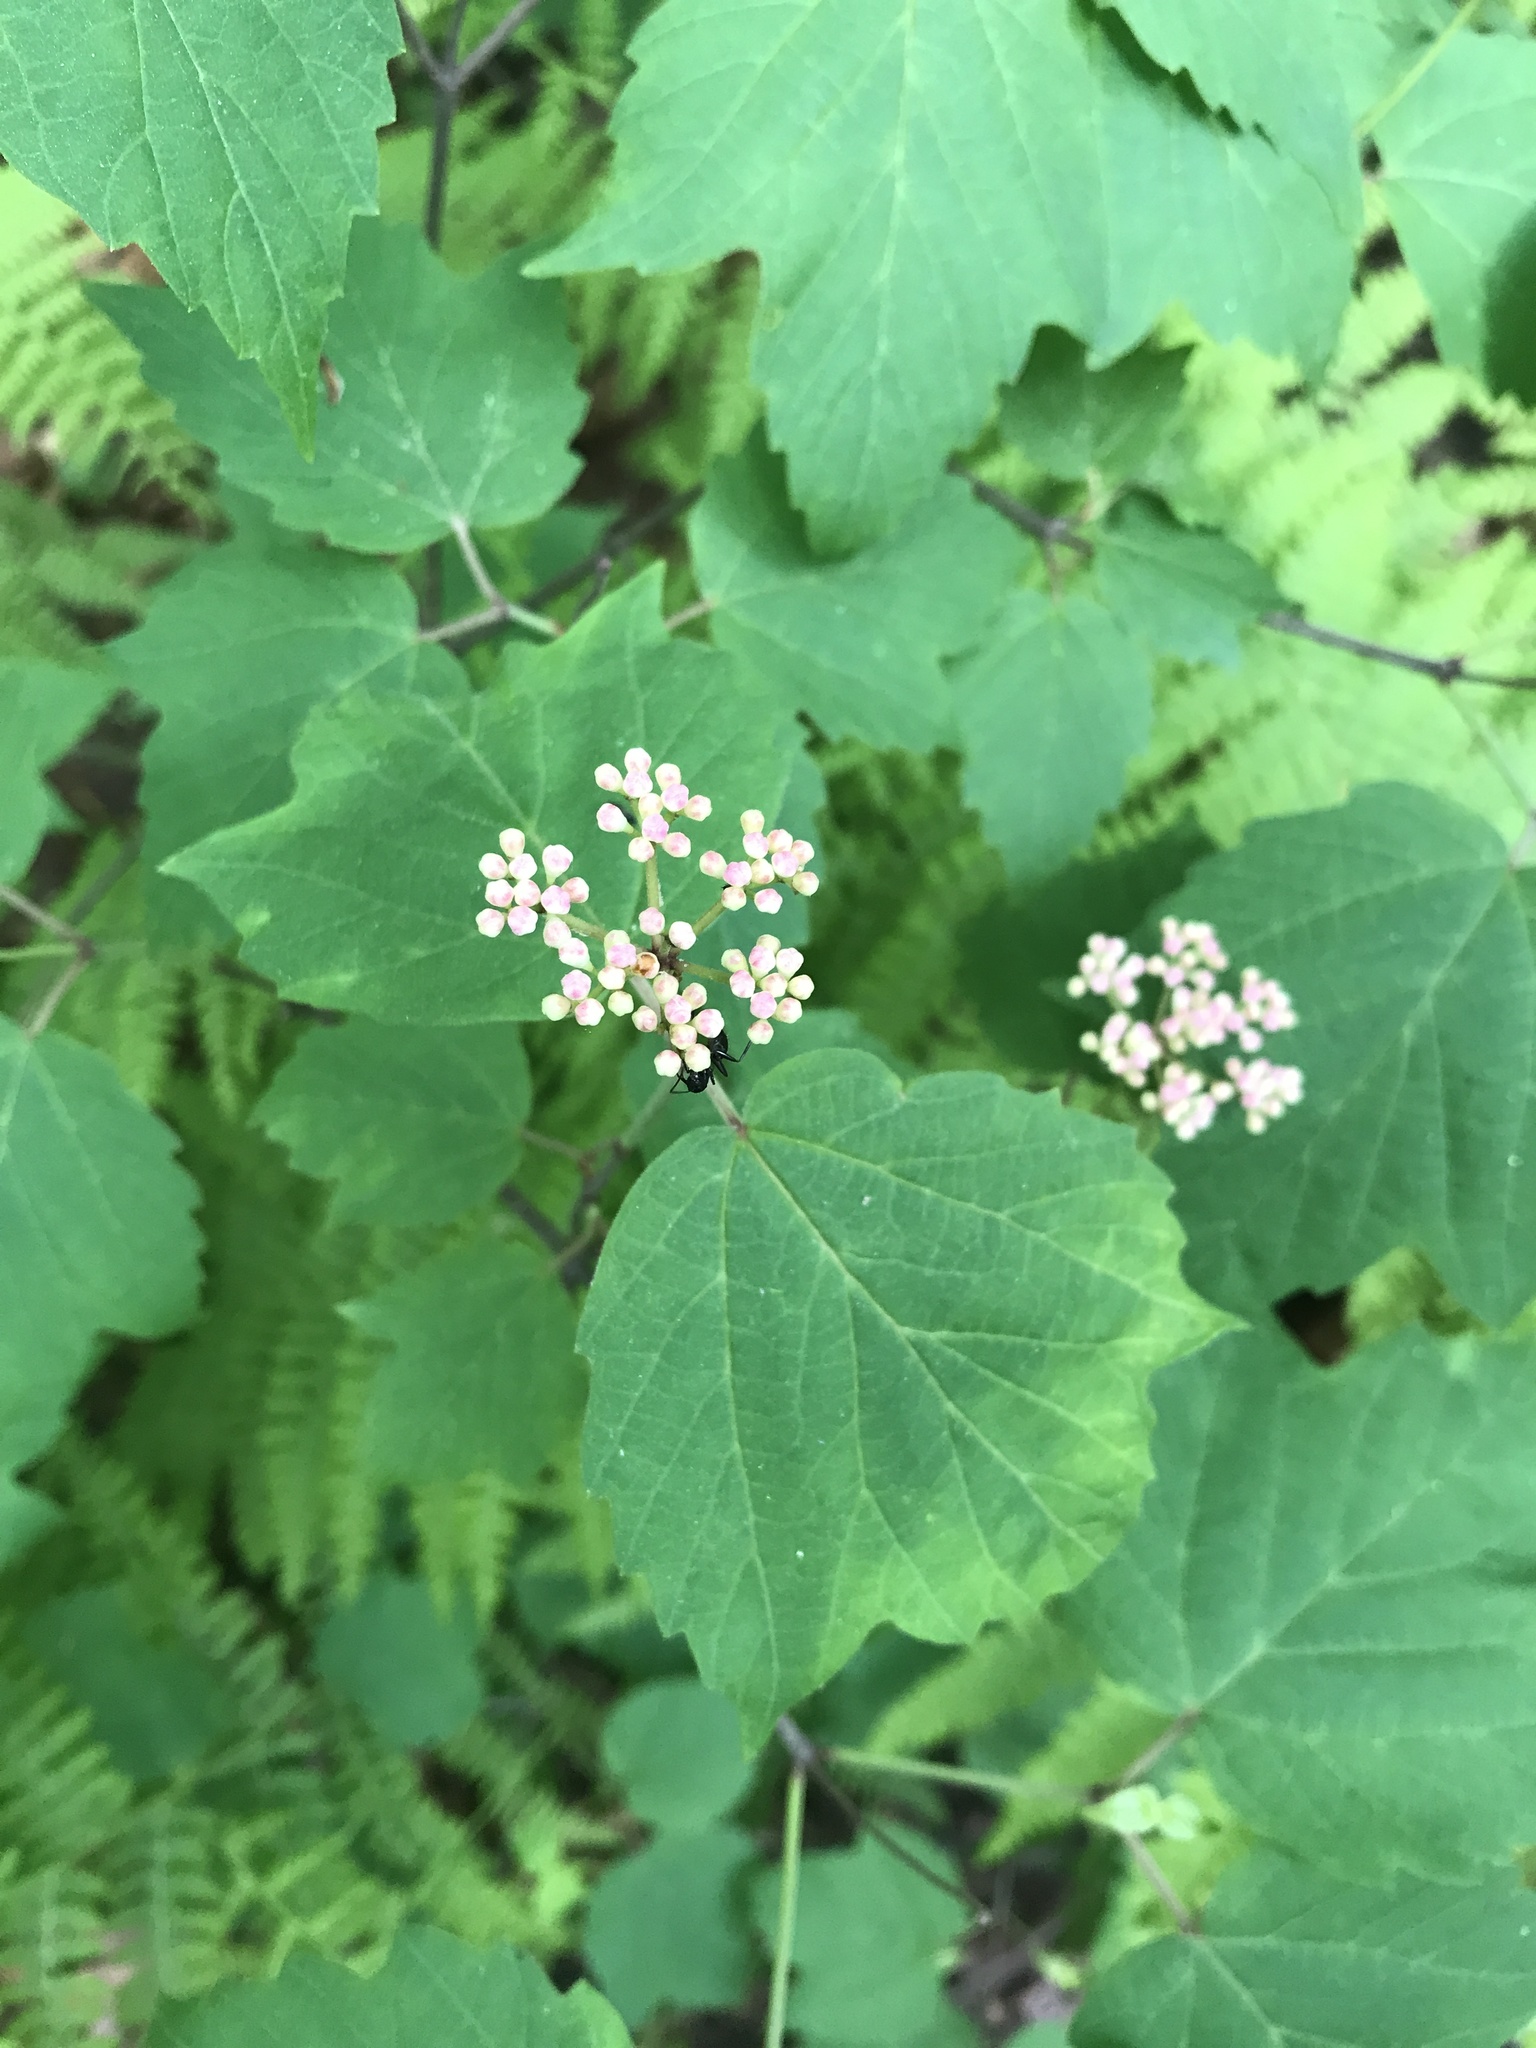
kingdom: Plantae
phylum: Tracheophyta
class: Magnoliopsida
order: Dipsacales
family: Viburnaceae
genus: Viburnum
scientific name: Viburnum acerifolium
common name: Dockmackie
